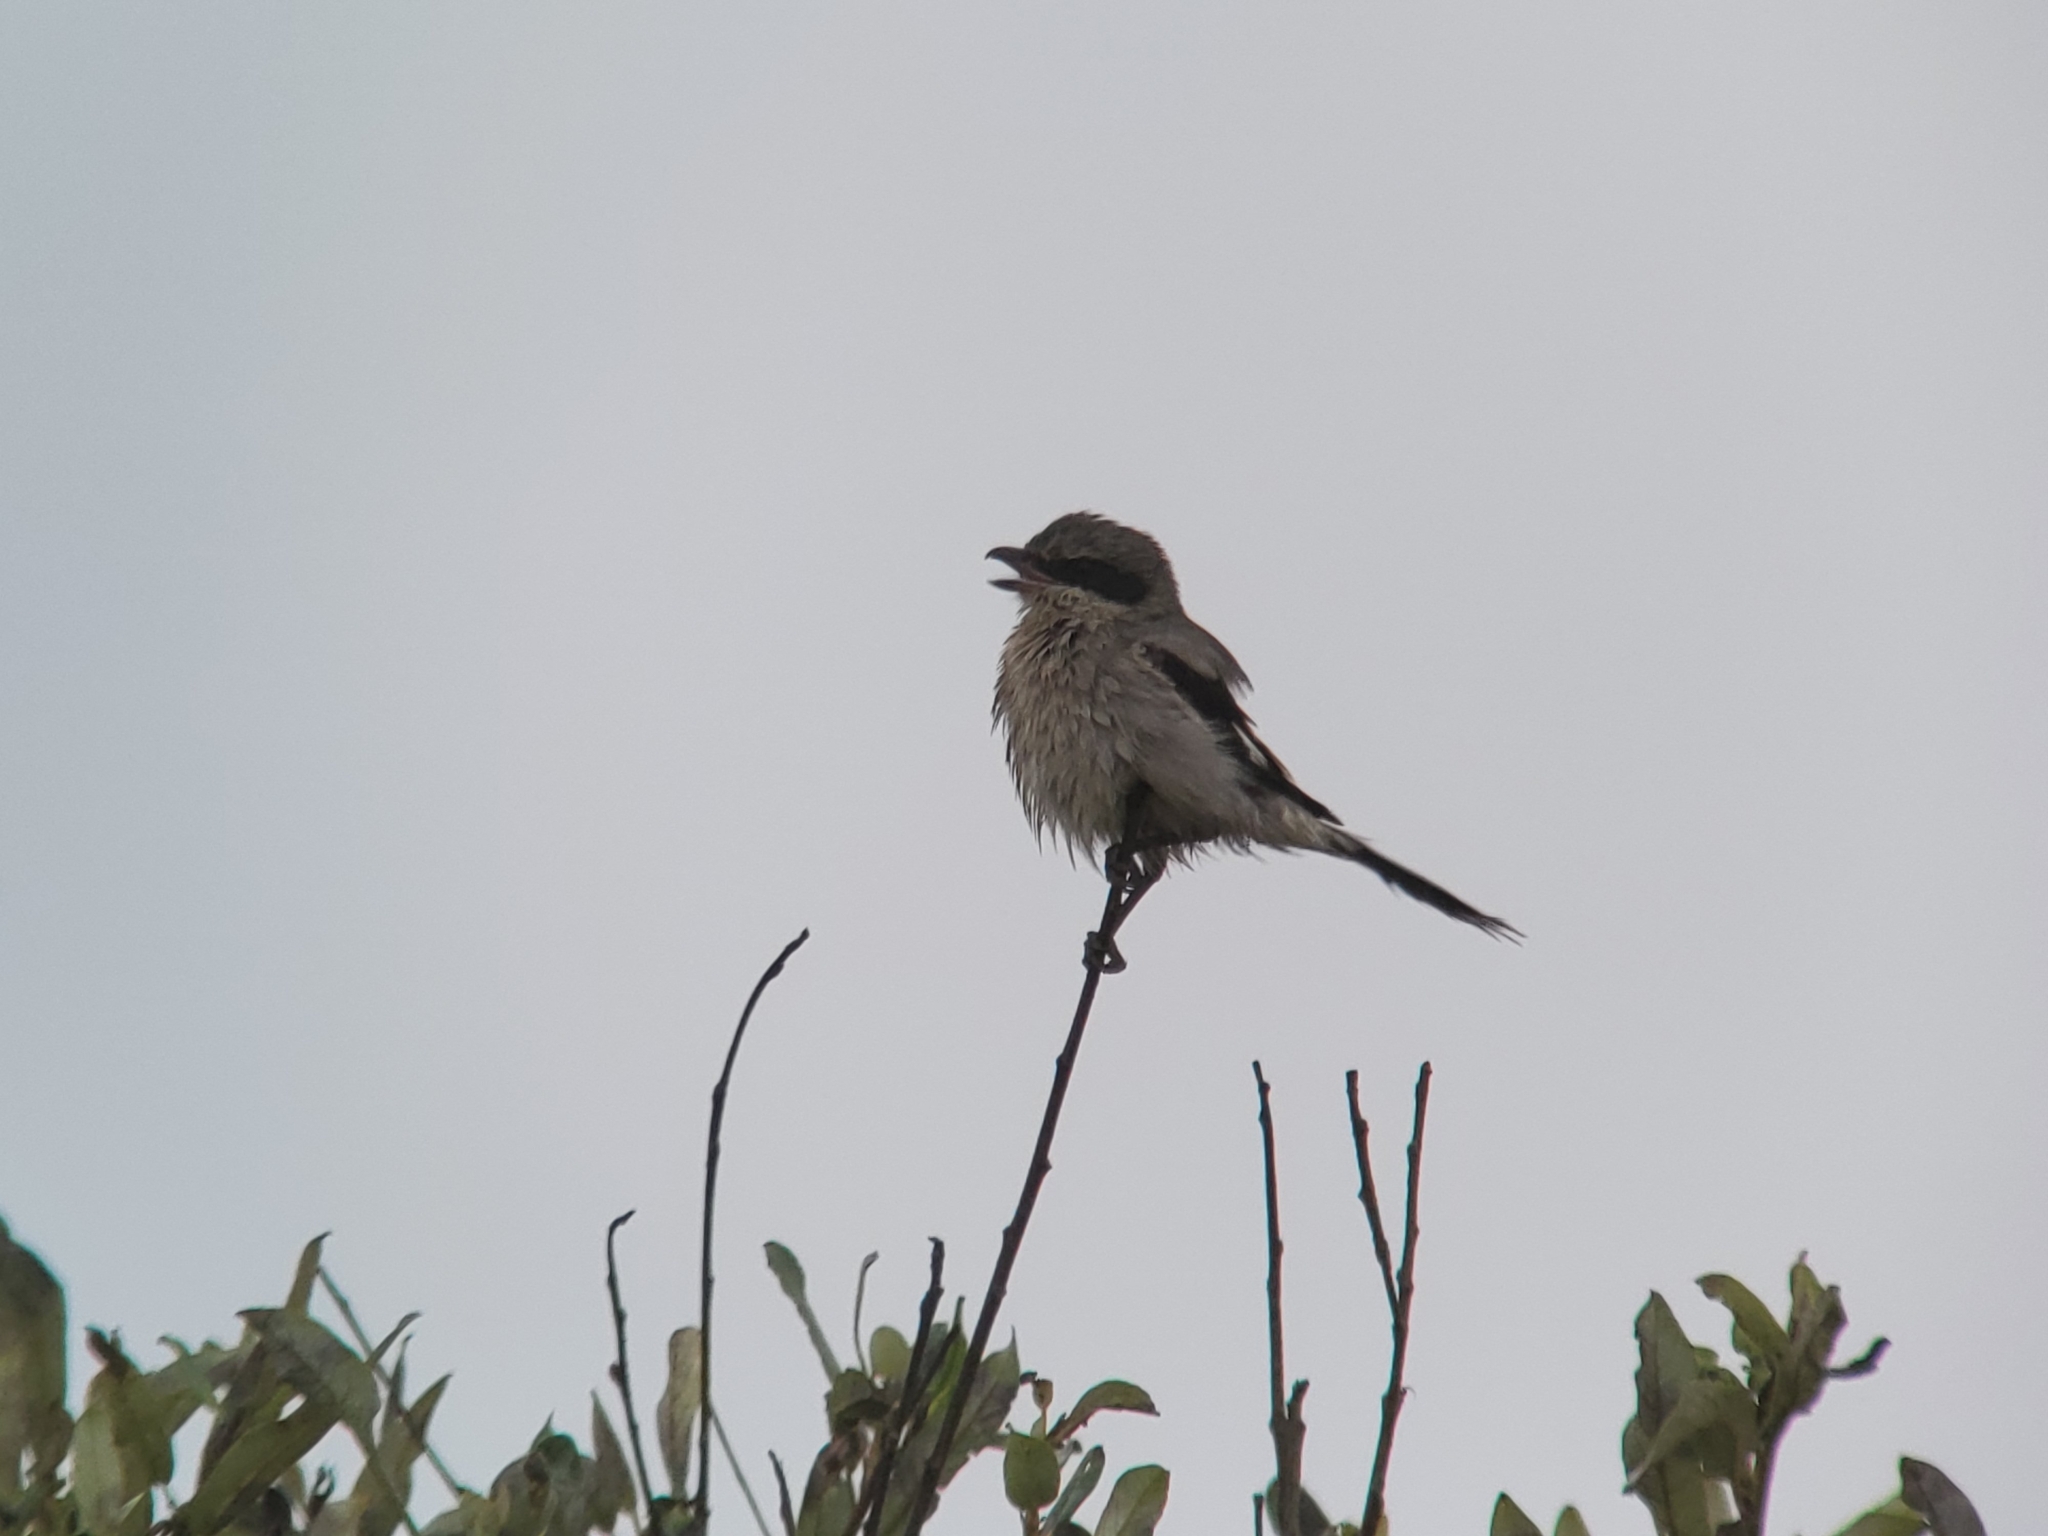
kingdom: Animalia
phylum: Chordata
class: Aves
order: Passeriformes
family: Laniidae
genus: Lanius
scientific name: Lanius ludovicianus
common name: Loggerhead shrike
